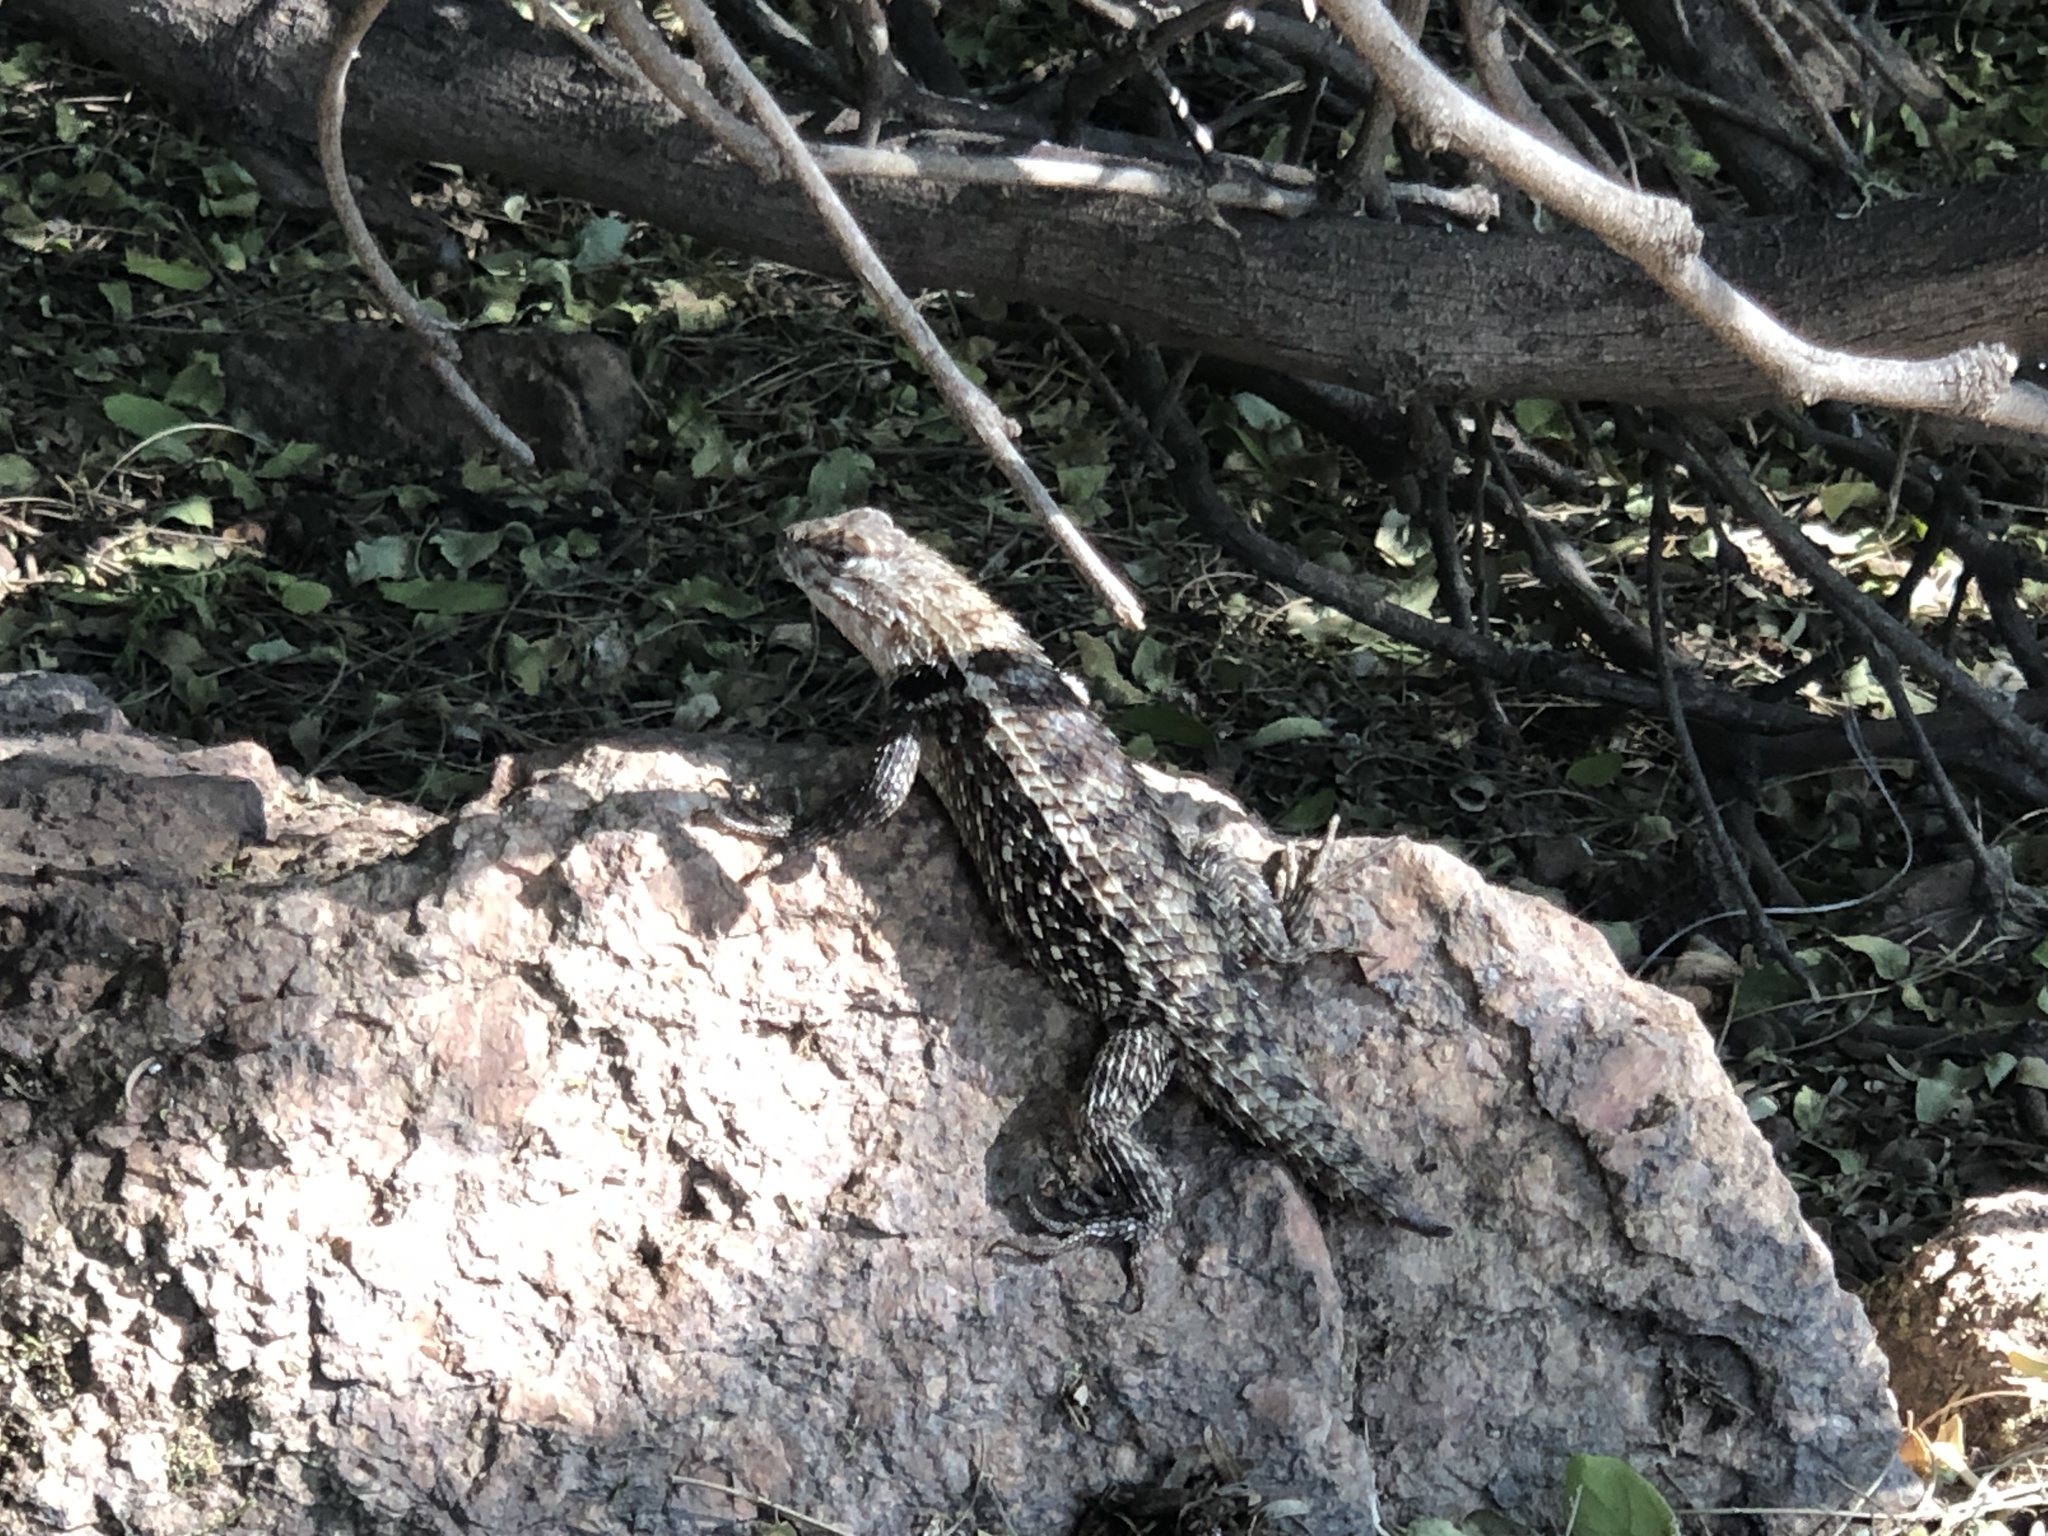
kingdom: Animalia
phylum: Chordata
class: Squamata
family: Phrynosomatidae
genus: Sceloporus
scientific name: Sceloporus magister
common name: Desert spiny lizard
